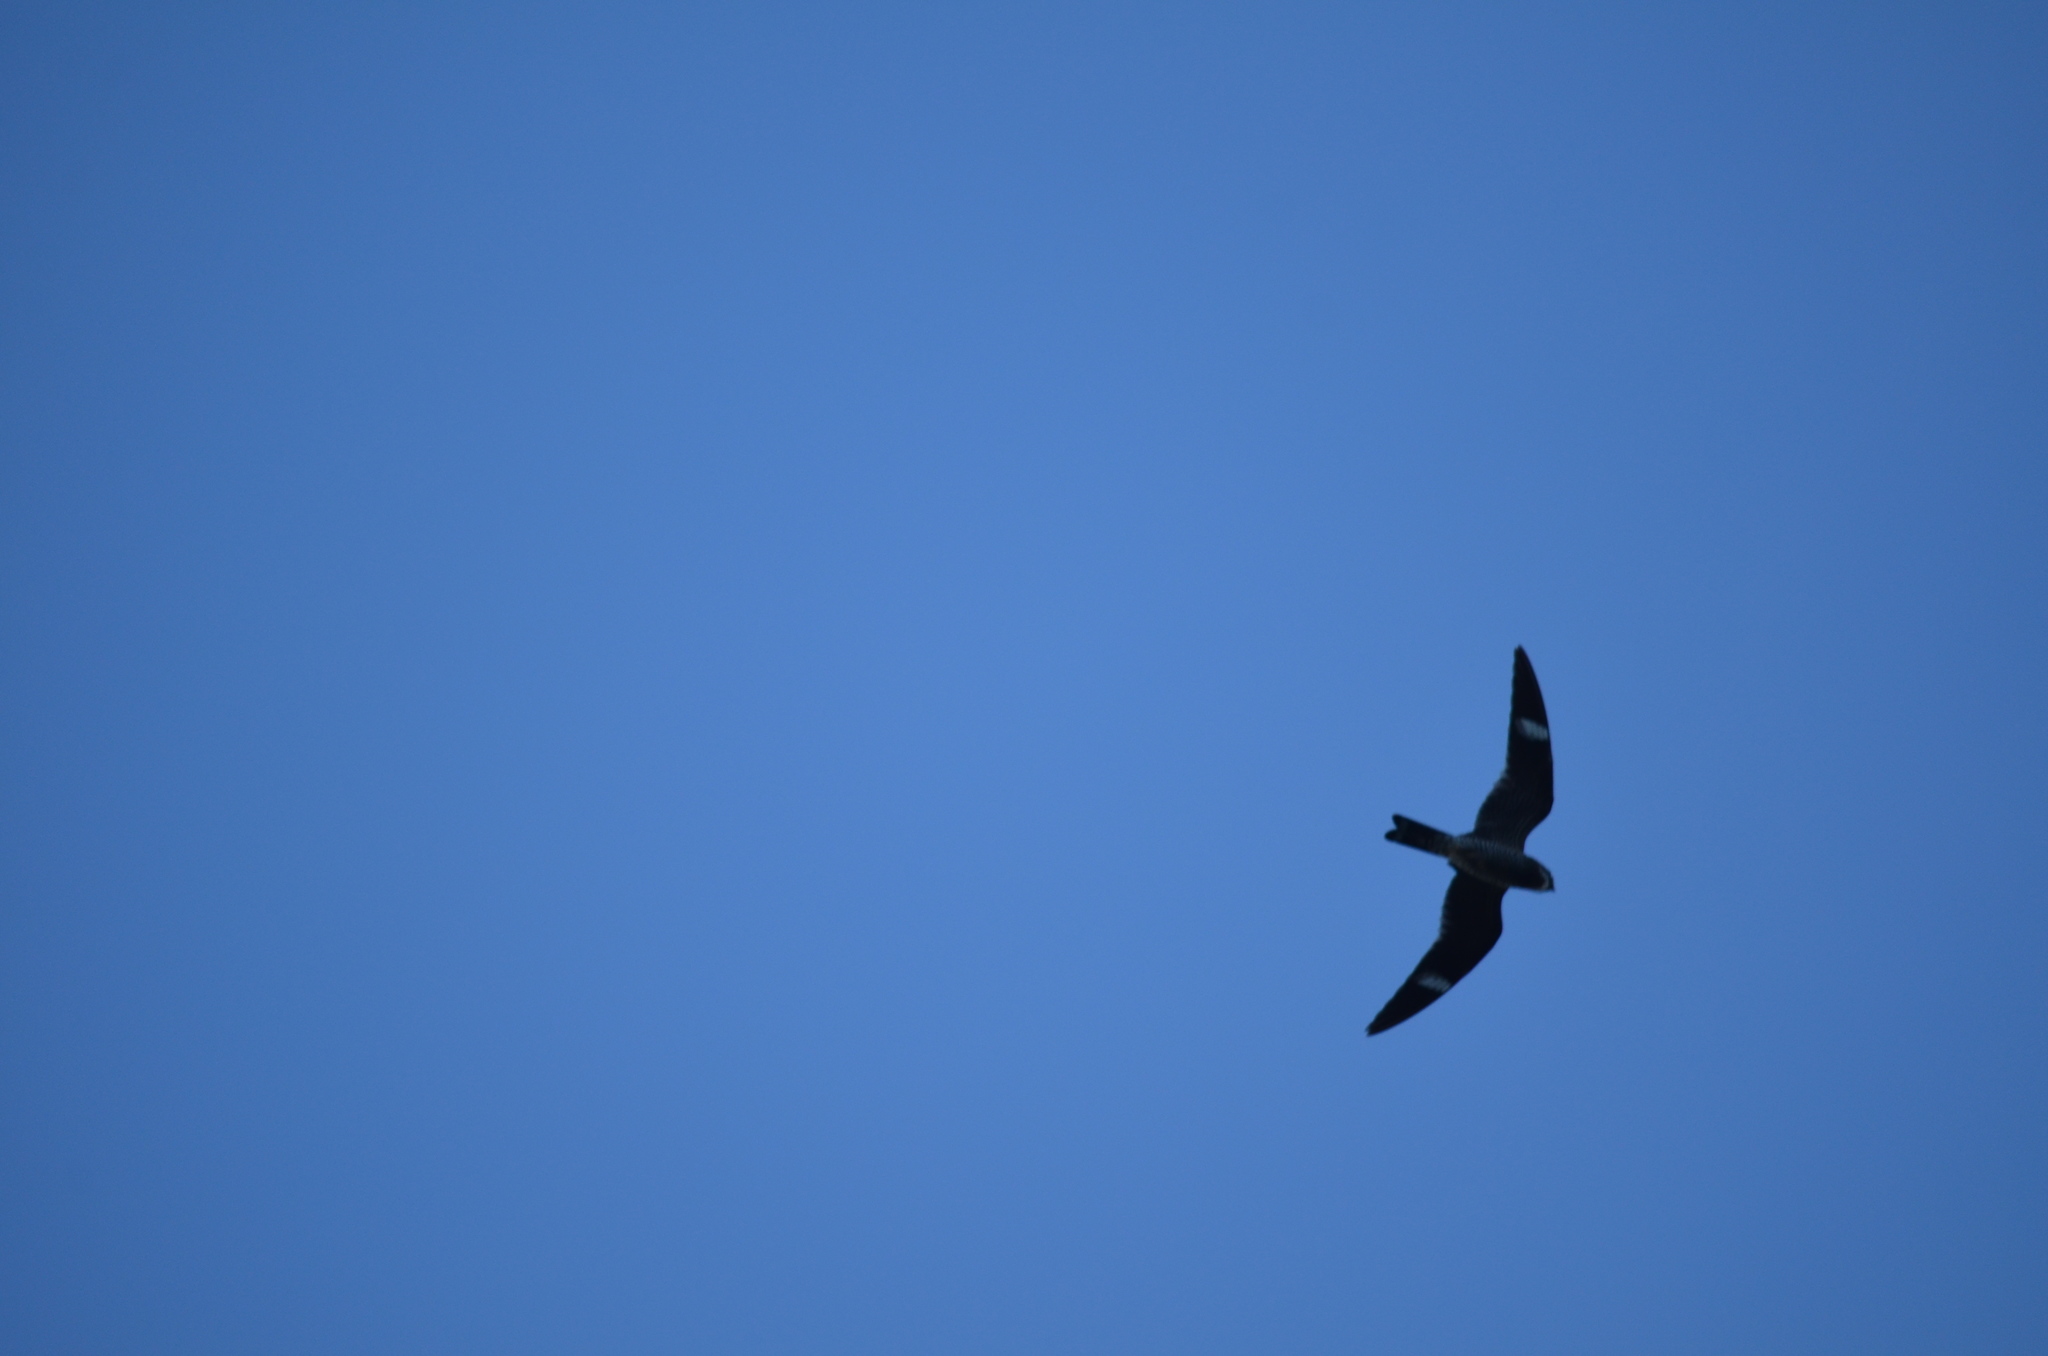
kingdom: Animalia
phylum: Chordata
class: Aves
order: Caprimulgiformes
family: Caprimulgidae
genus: Chordeiles
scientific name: Chordeiles minor
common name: Common nighthawk
